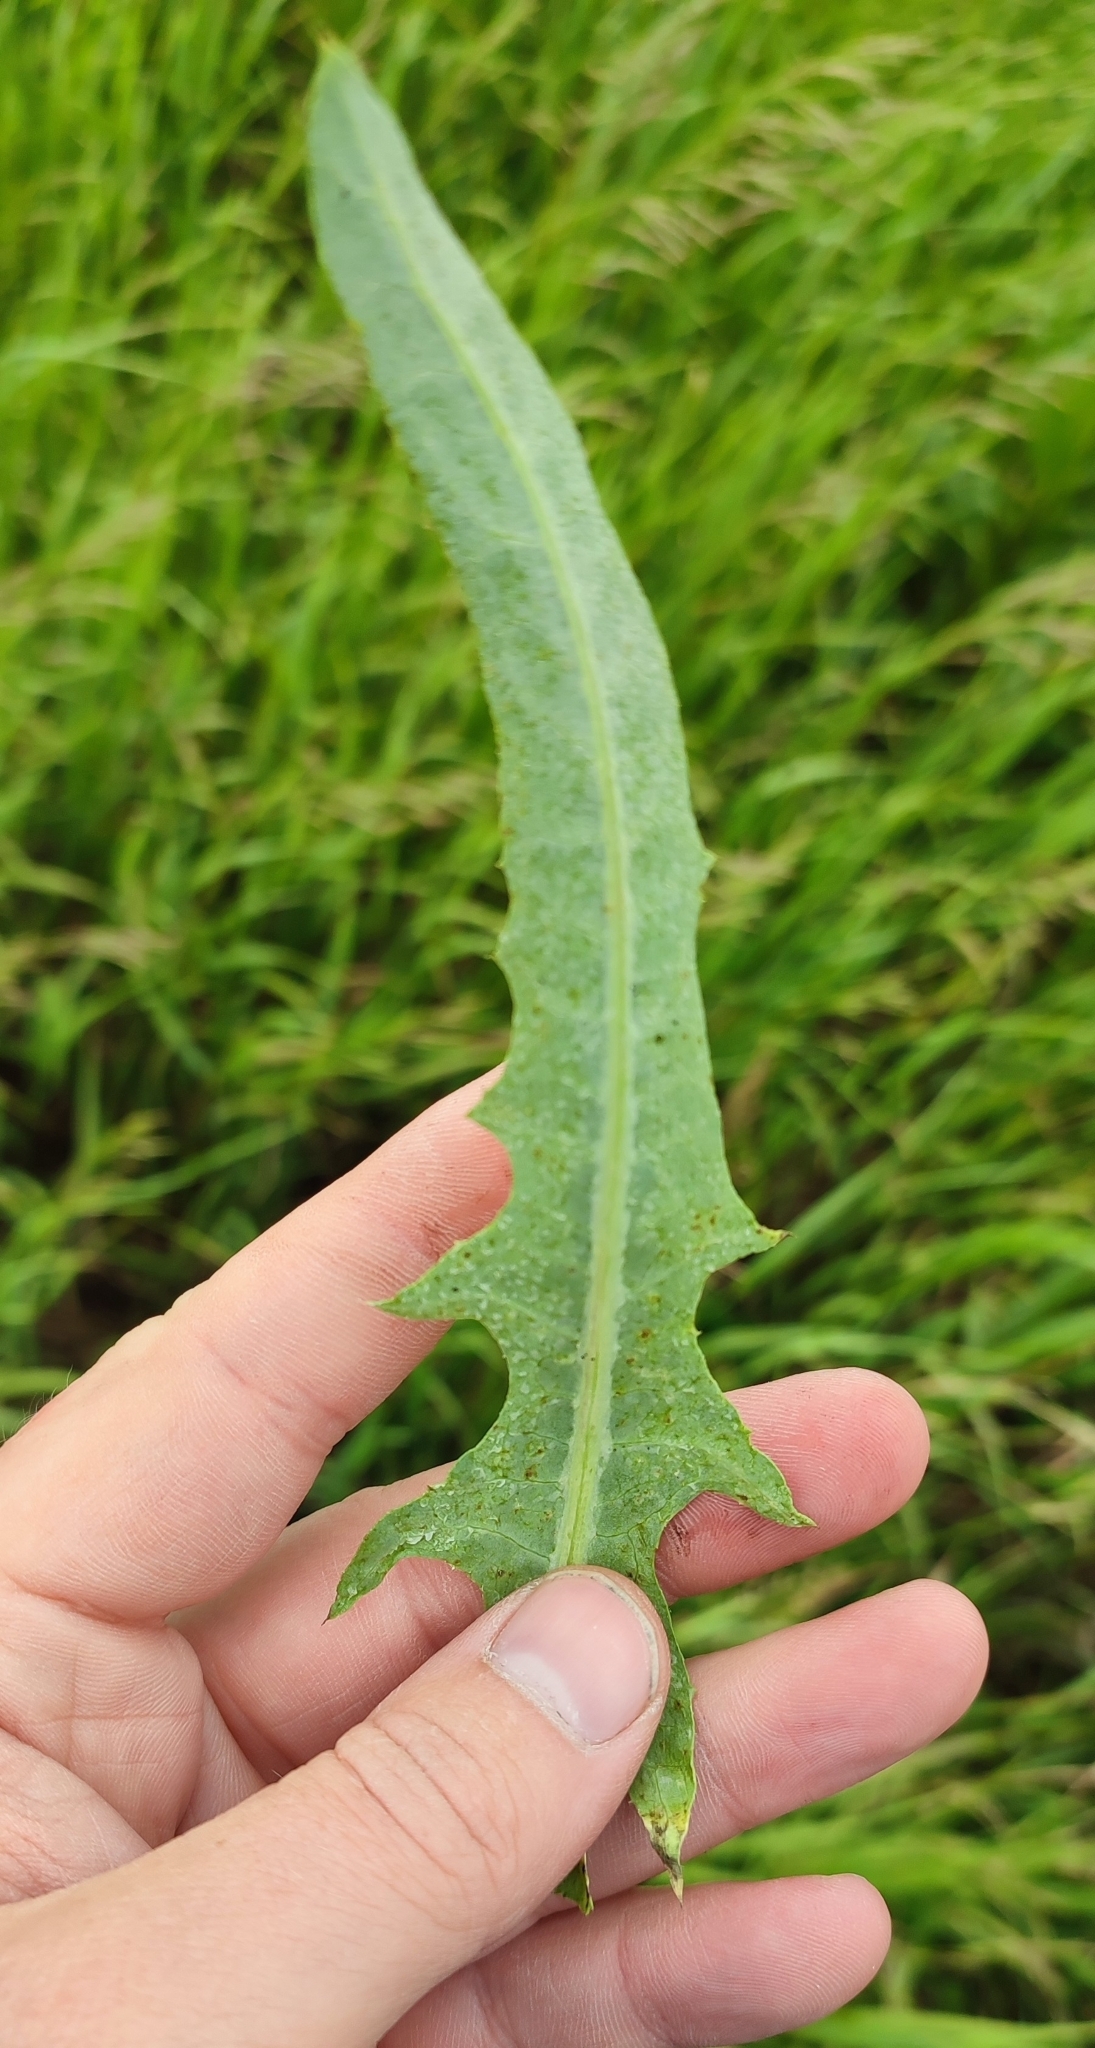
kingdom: Plantae
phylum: Tracheophyta
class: Magnoliopsida
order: Asterales
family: Asteraceae
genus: Lactuca
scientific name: Lactuca tatarica
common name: Blue lettuce
